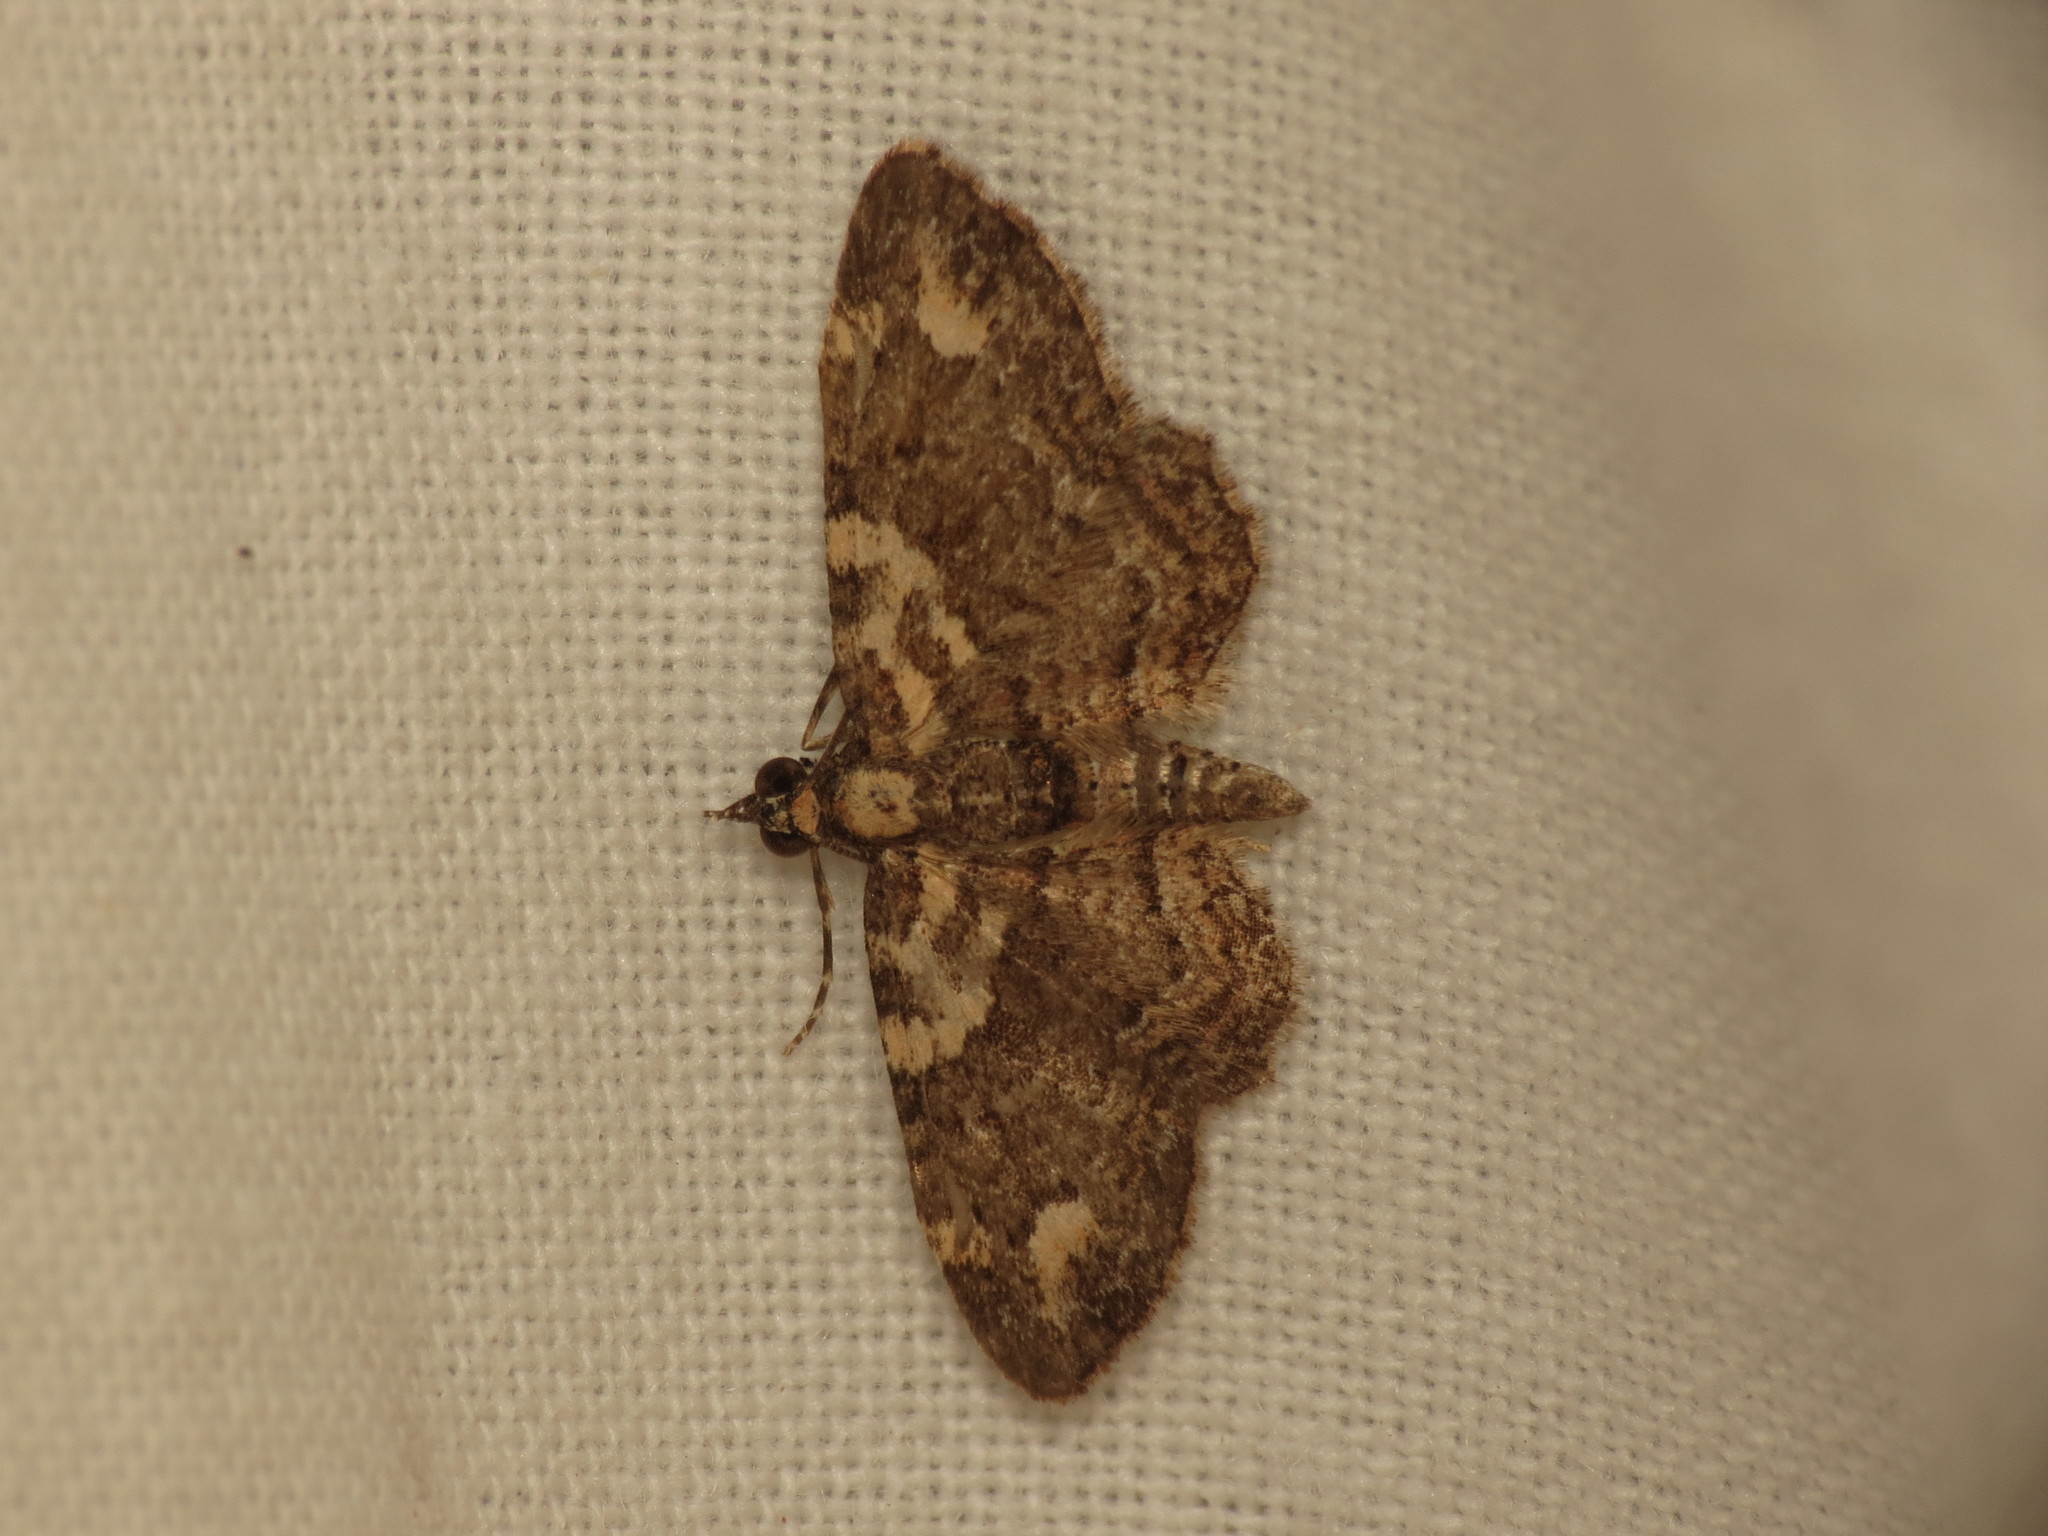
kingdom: Animalia
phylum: Arthropoda
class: Insecta
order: Lepidoptera
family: Geometridae
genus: Pasiphilodes
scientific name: Pasiphilodes testulata
